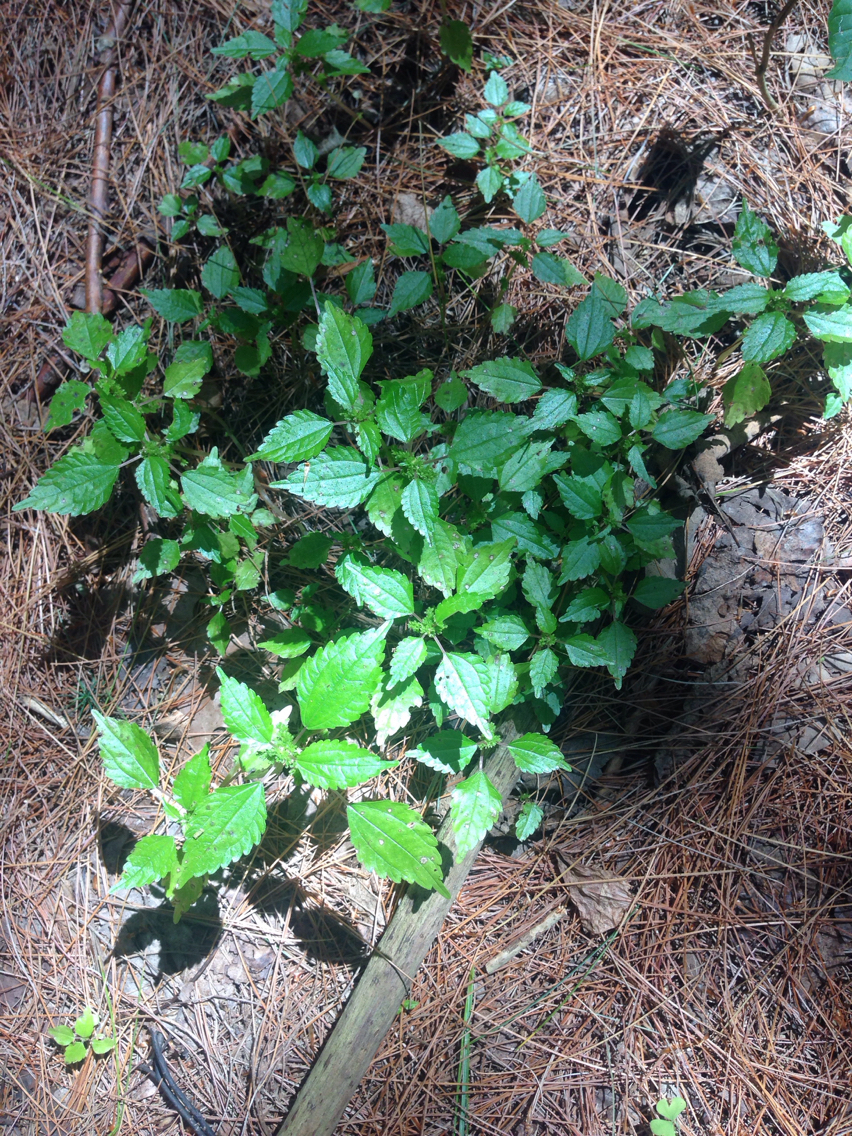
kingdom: Plantae
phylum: Tracheophyta
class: Magnoliopsida
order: Rosales
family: Urticaceae
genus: Pilea
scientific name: Pilea pumila
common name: Clearweed
